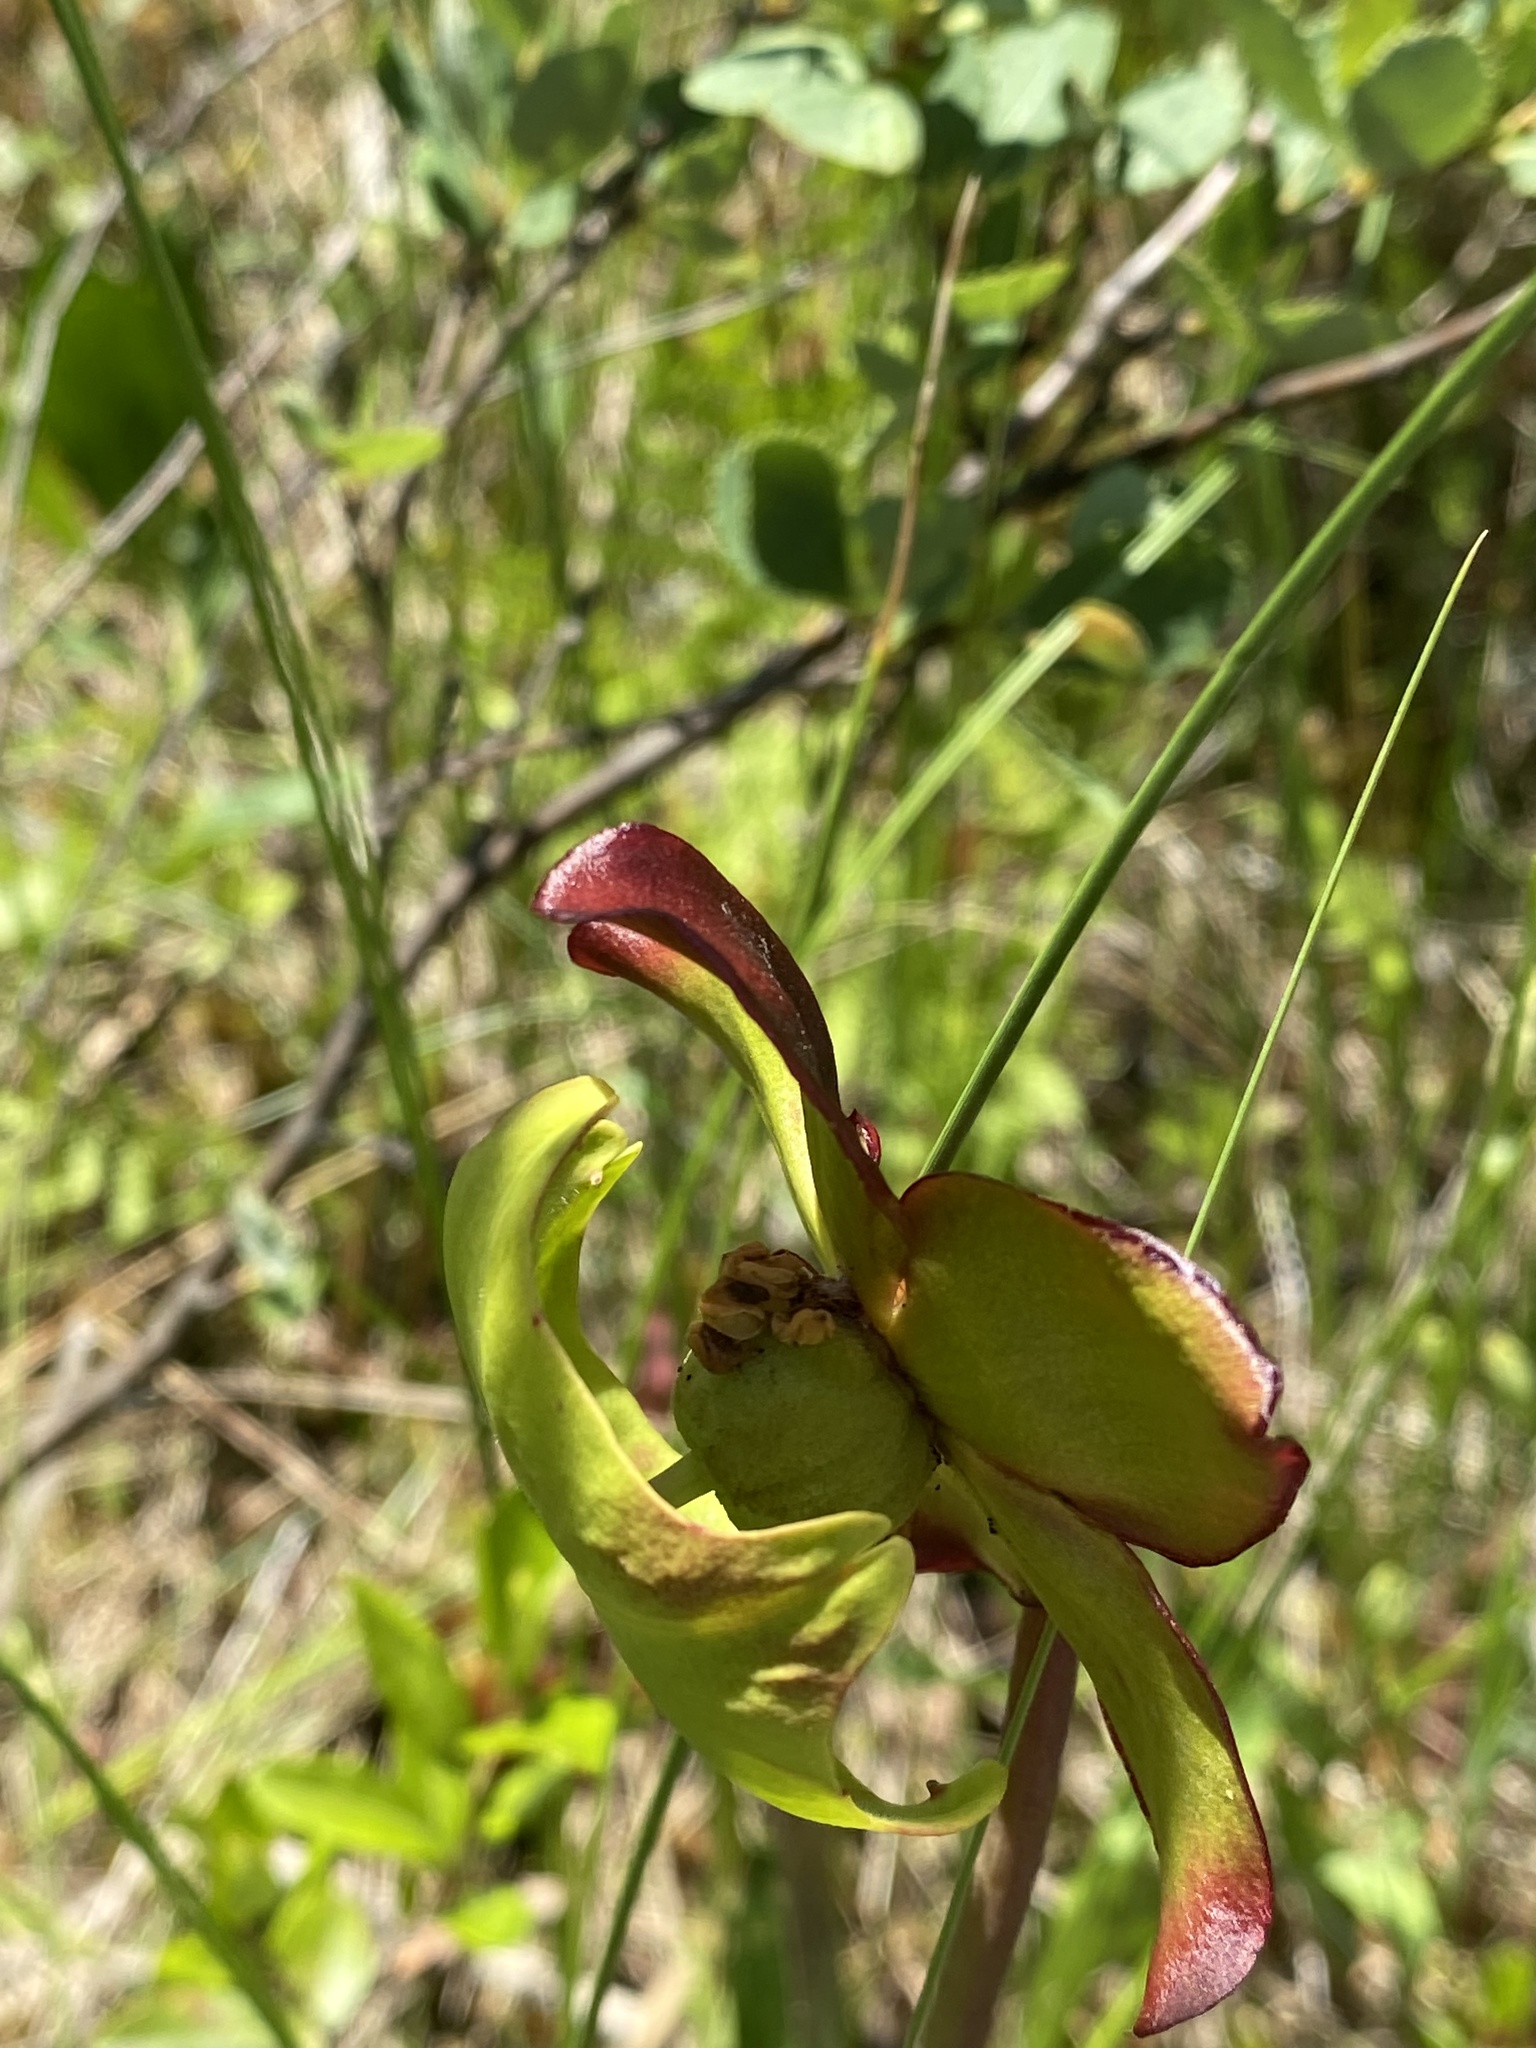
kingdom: Plantae
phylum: Tracheophyta
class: Magnoliopsida
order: Ericales
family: Sarraceniaceae
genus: Sarracenia
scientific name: Sarracenia purpurea
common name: Pitcherplant
